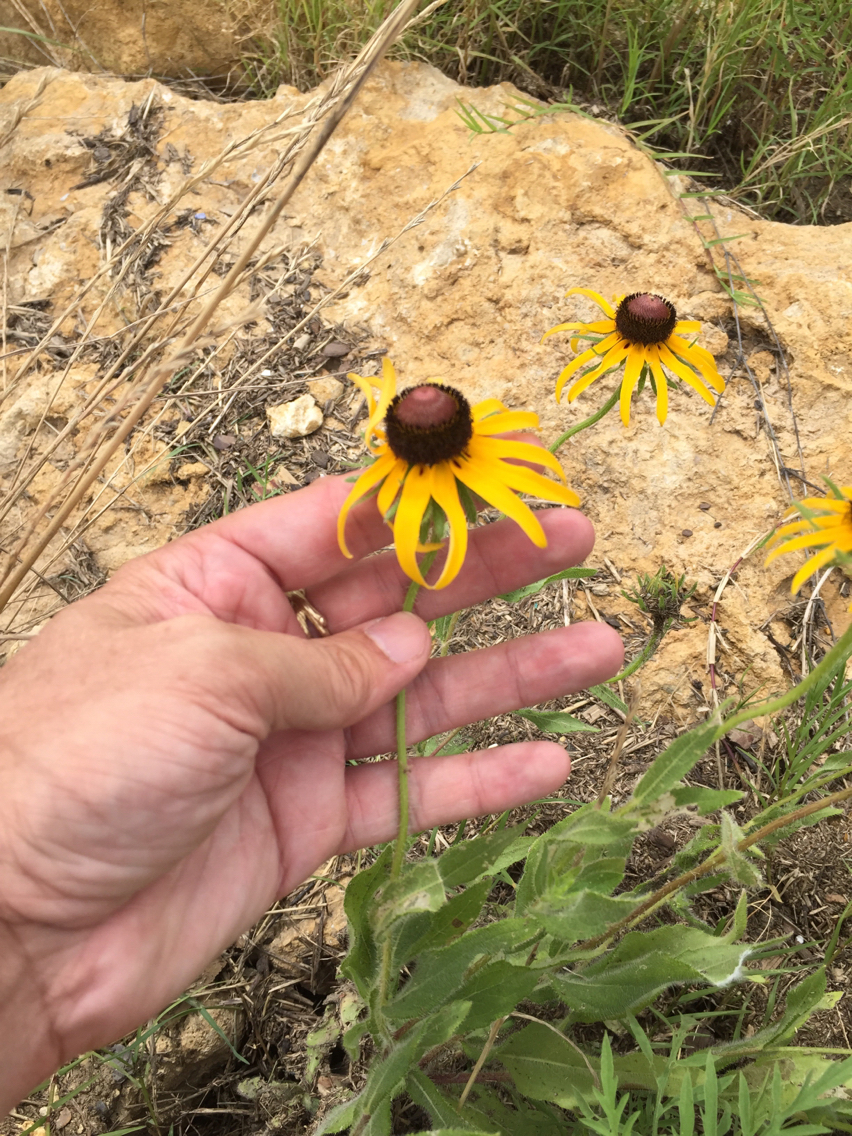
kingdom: Plantae
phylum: Tracheophyta
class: Magnoliopsida
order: Asterales
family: Asteraceae
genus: Rudbeckia
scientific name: Rudbeckia hirta
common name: Black-eyed-susan
